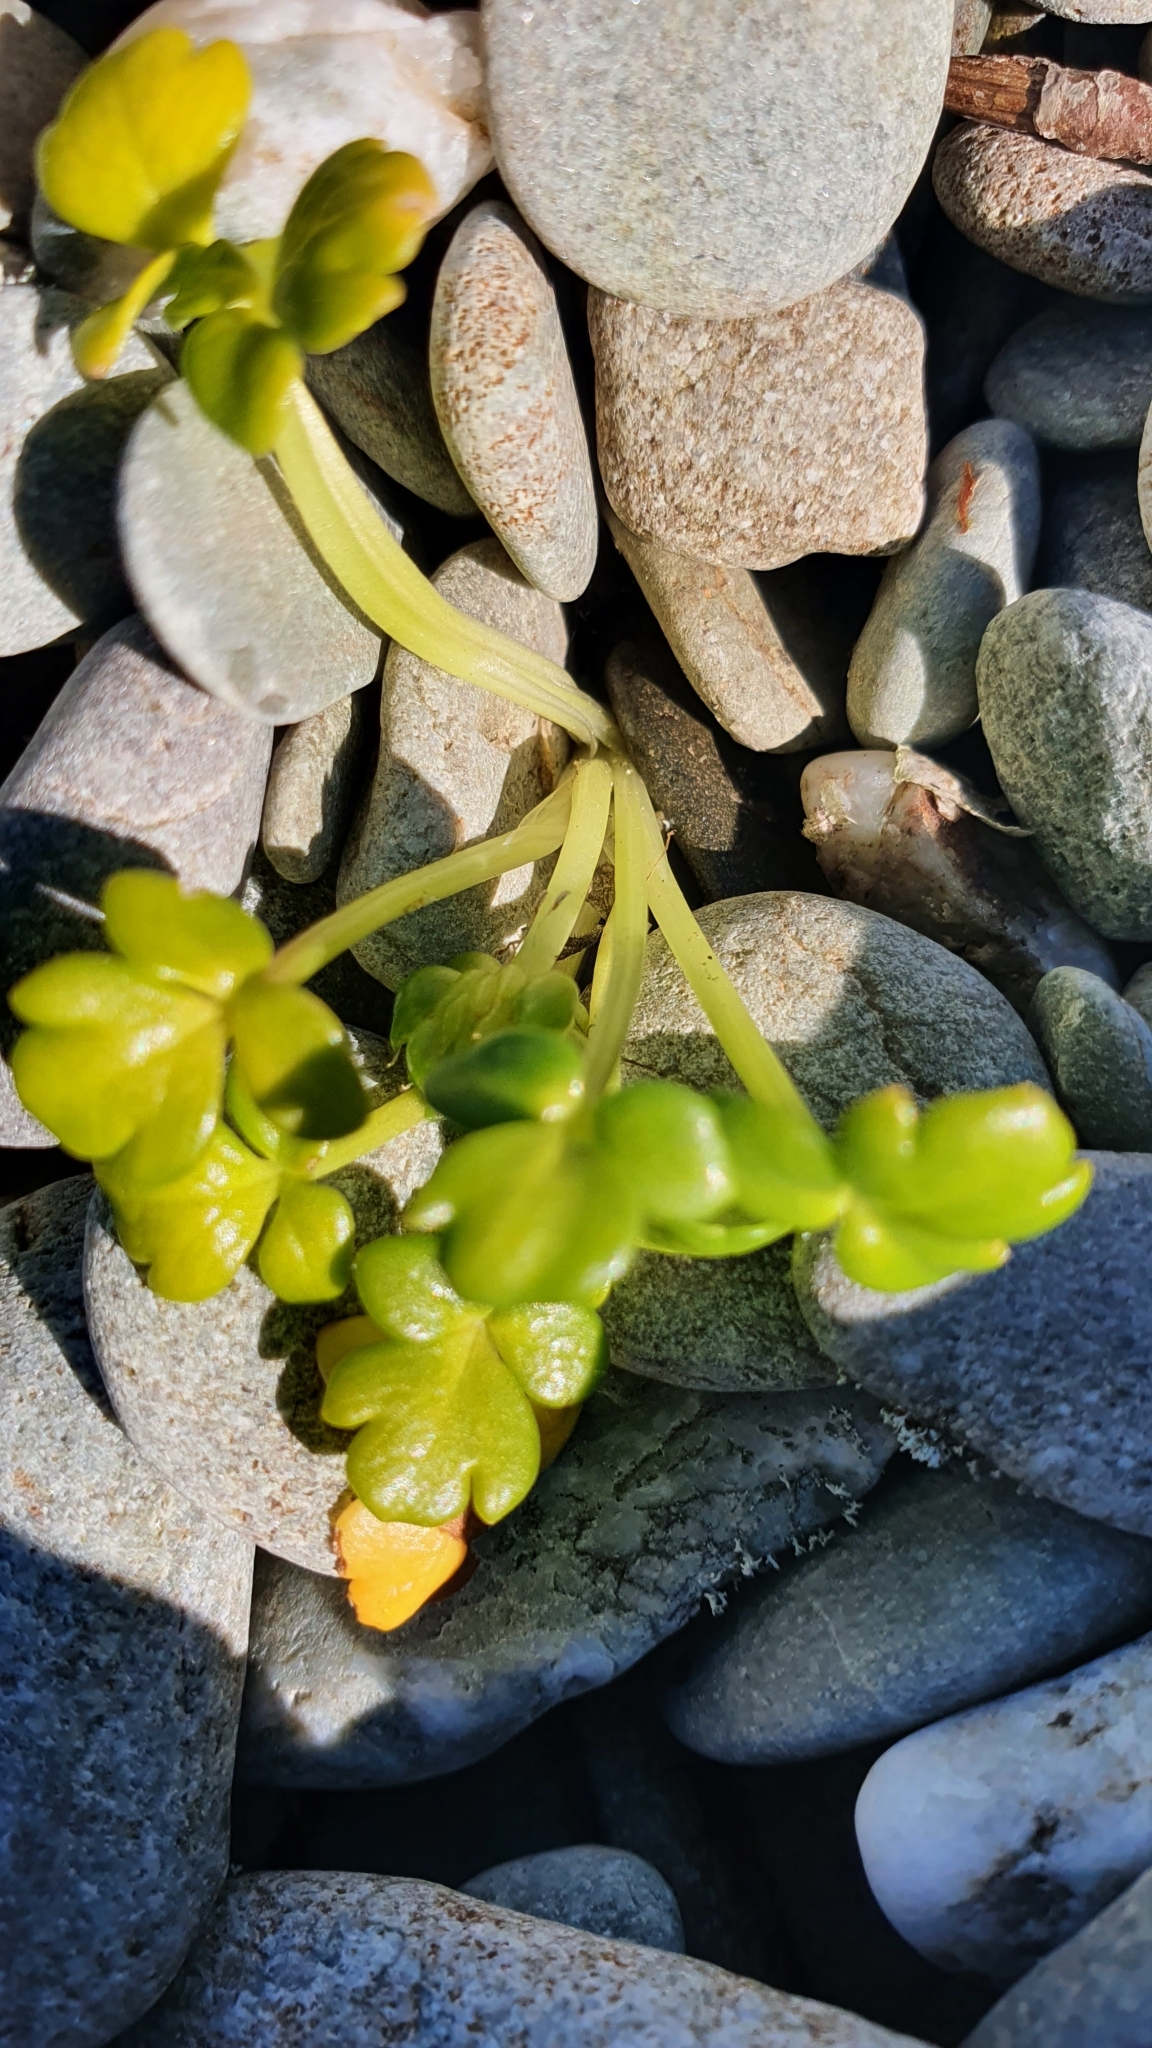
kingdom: Plantae
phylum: Tracheophyta
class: Magnoliopsida
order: Ranunculales
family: Ranunculaceae
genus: Ranunculus
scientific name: Ranunculus acaulis
